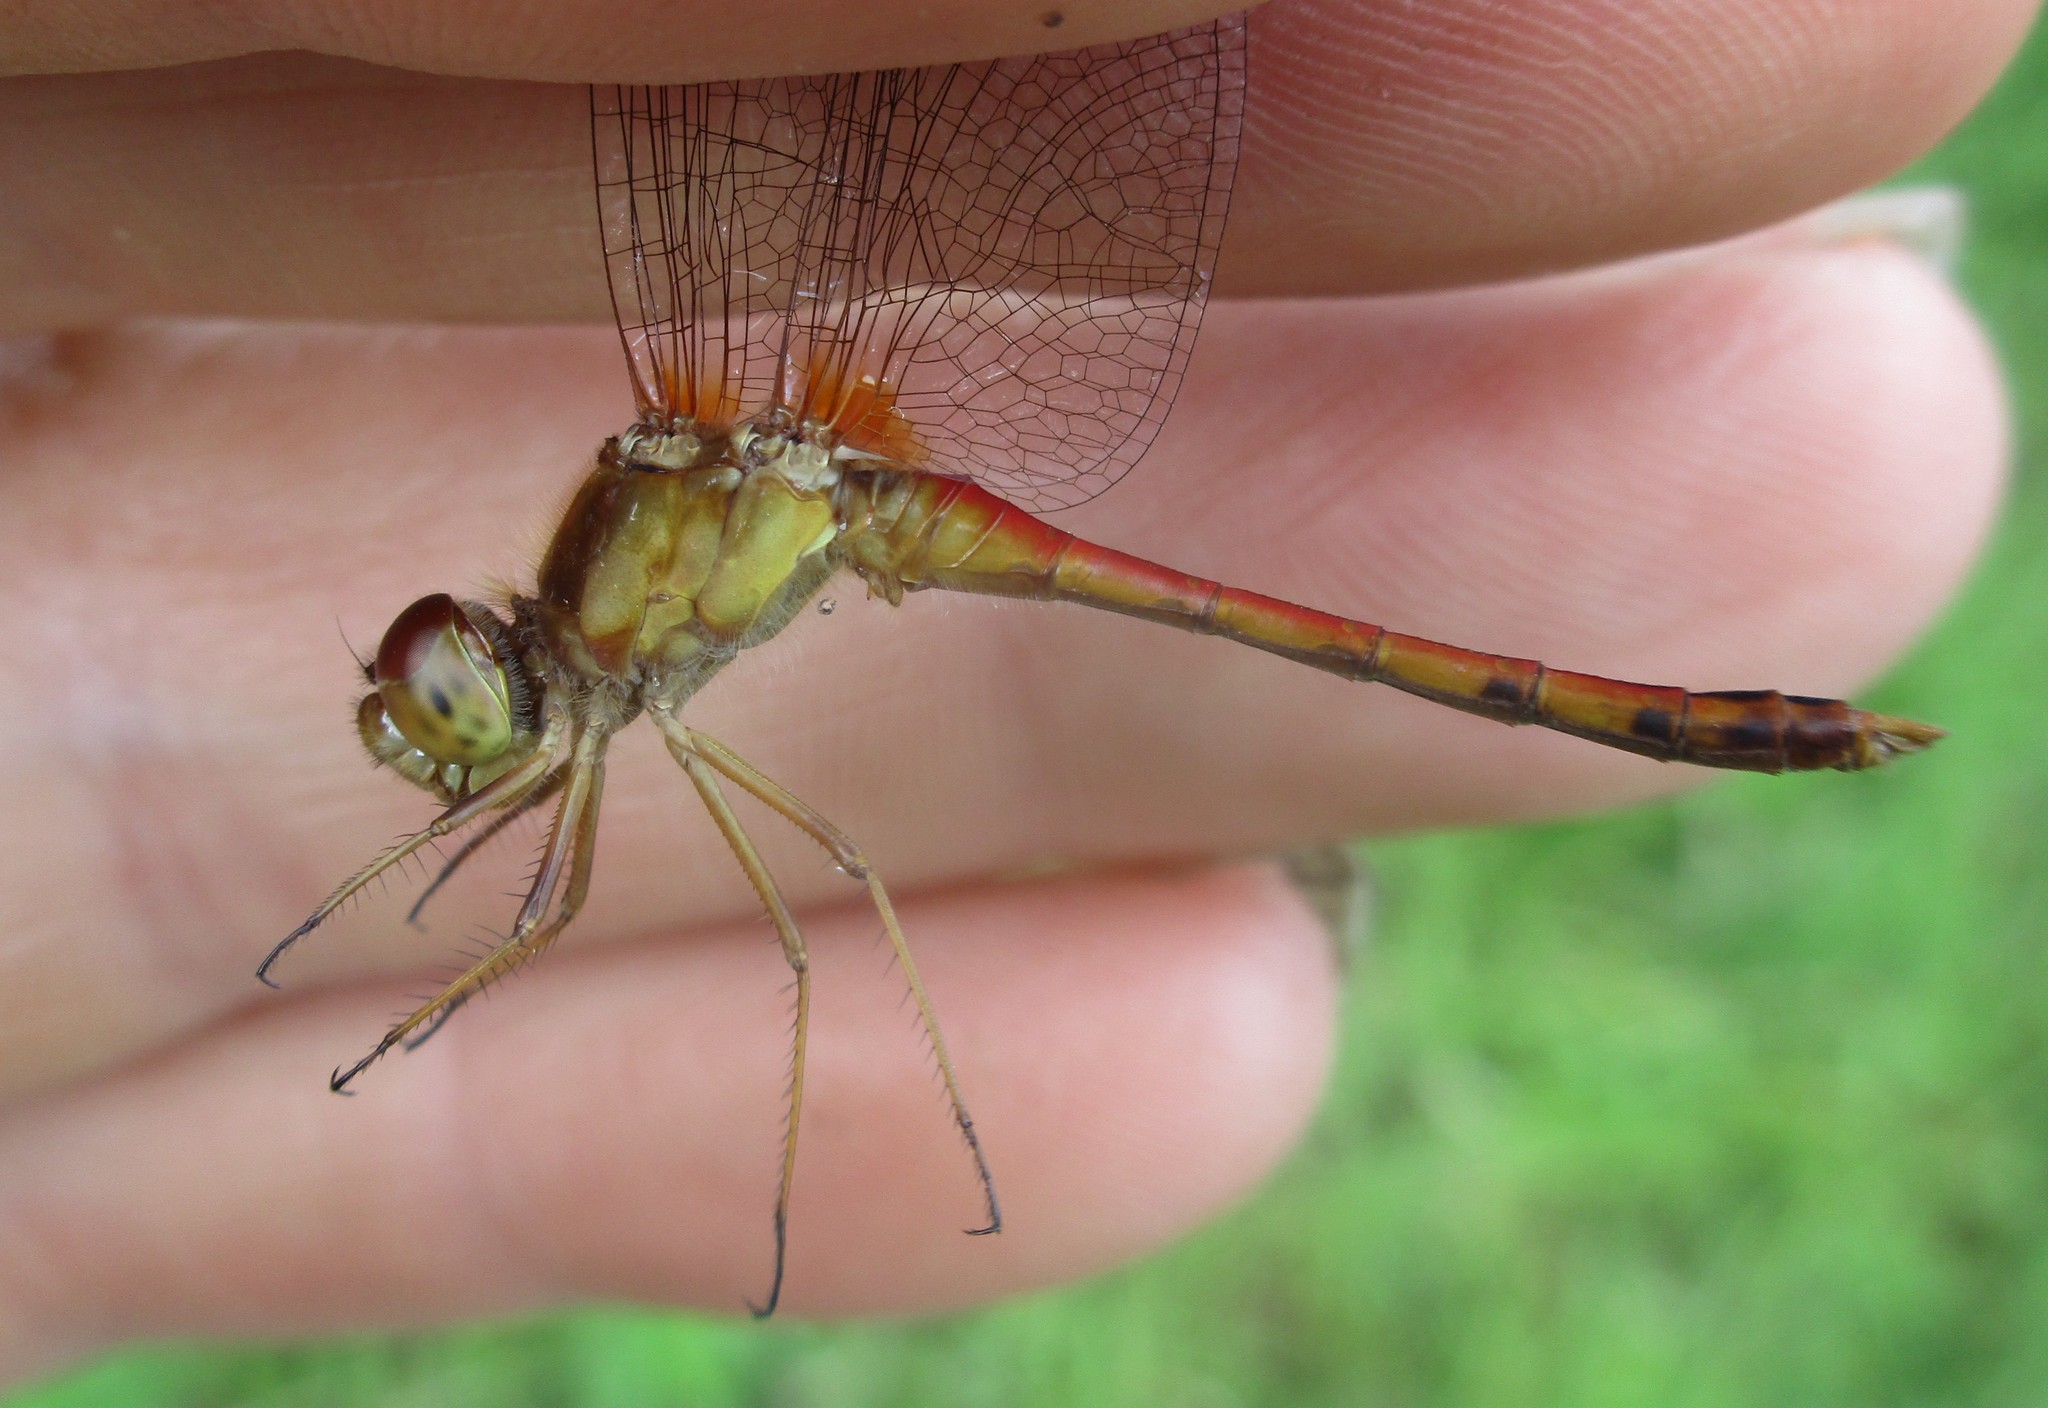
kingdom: Animalia
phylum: Arthropoda
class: Insecta
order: Odonata
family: Libellulidae
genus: Sympetrum
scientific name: Sympetrum vicinum
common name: Autumn meadowhawk
